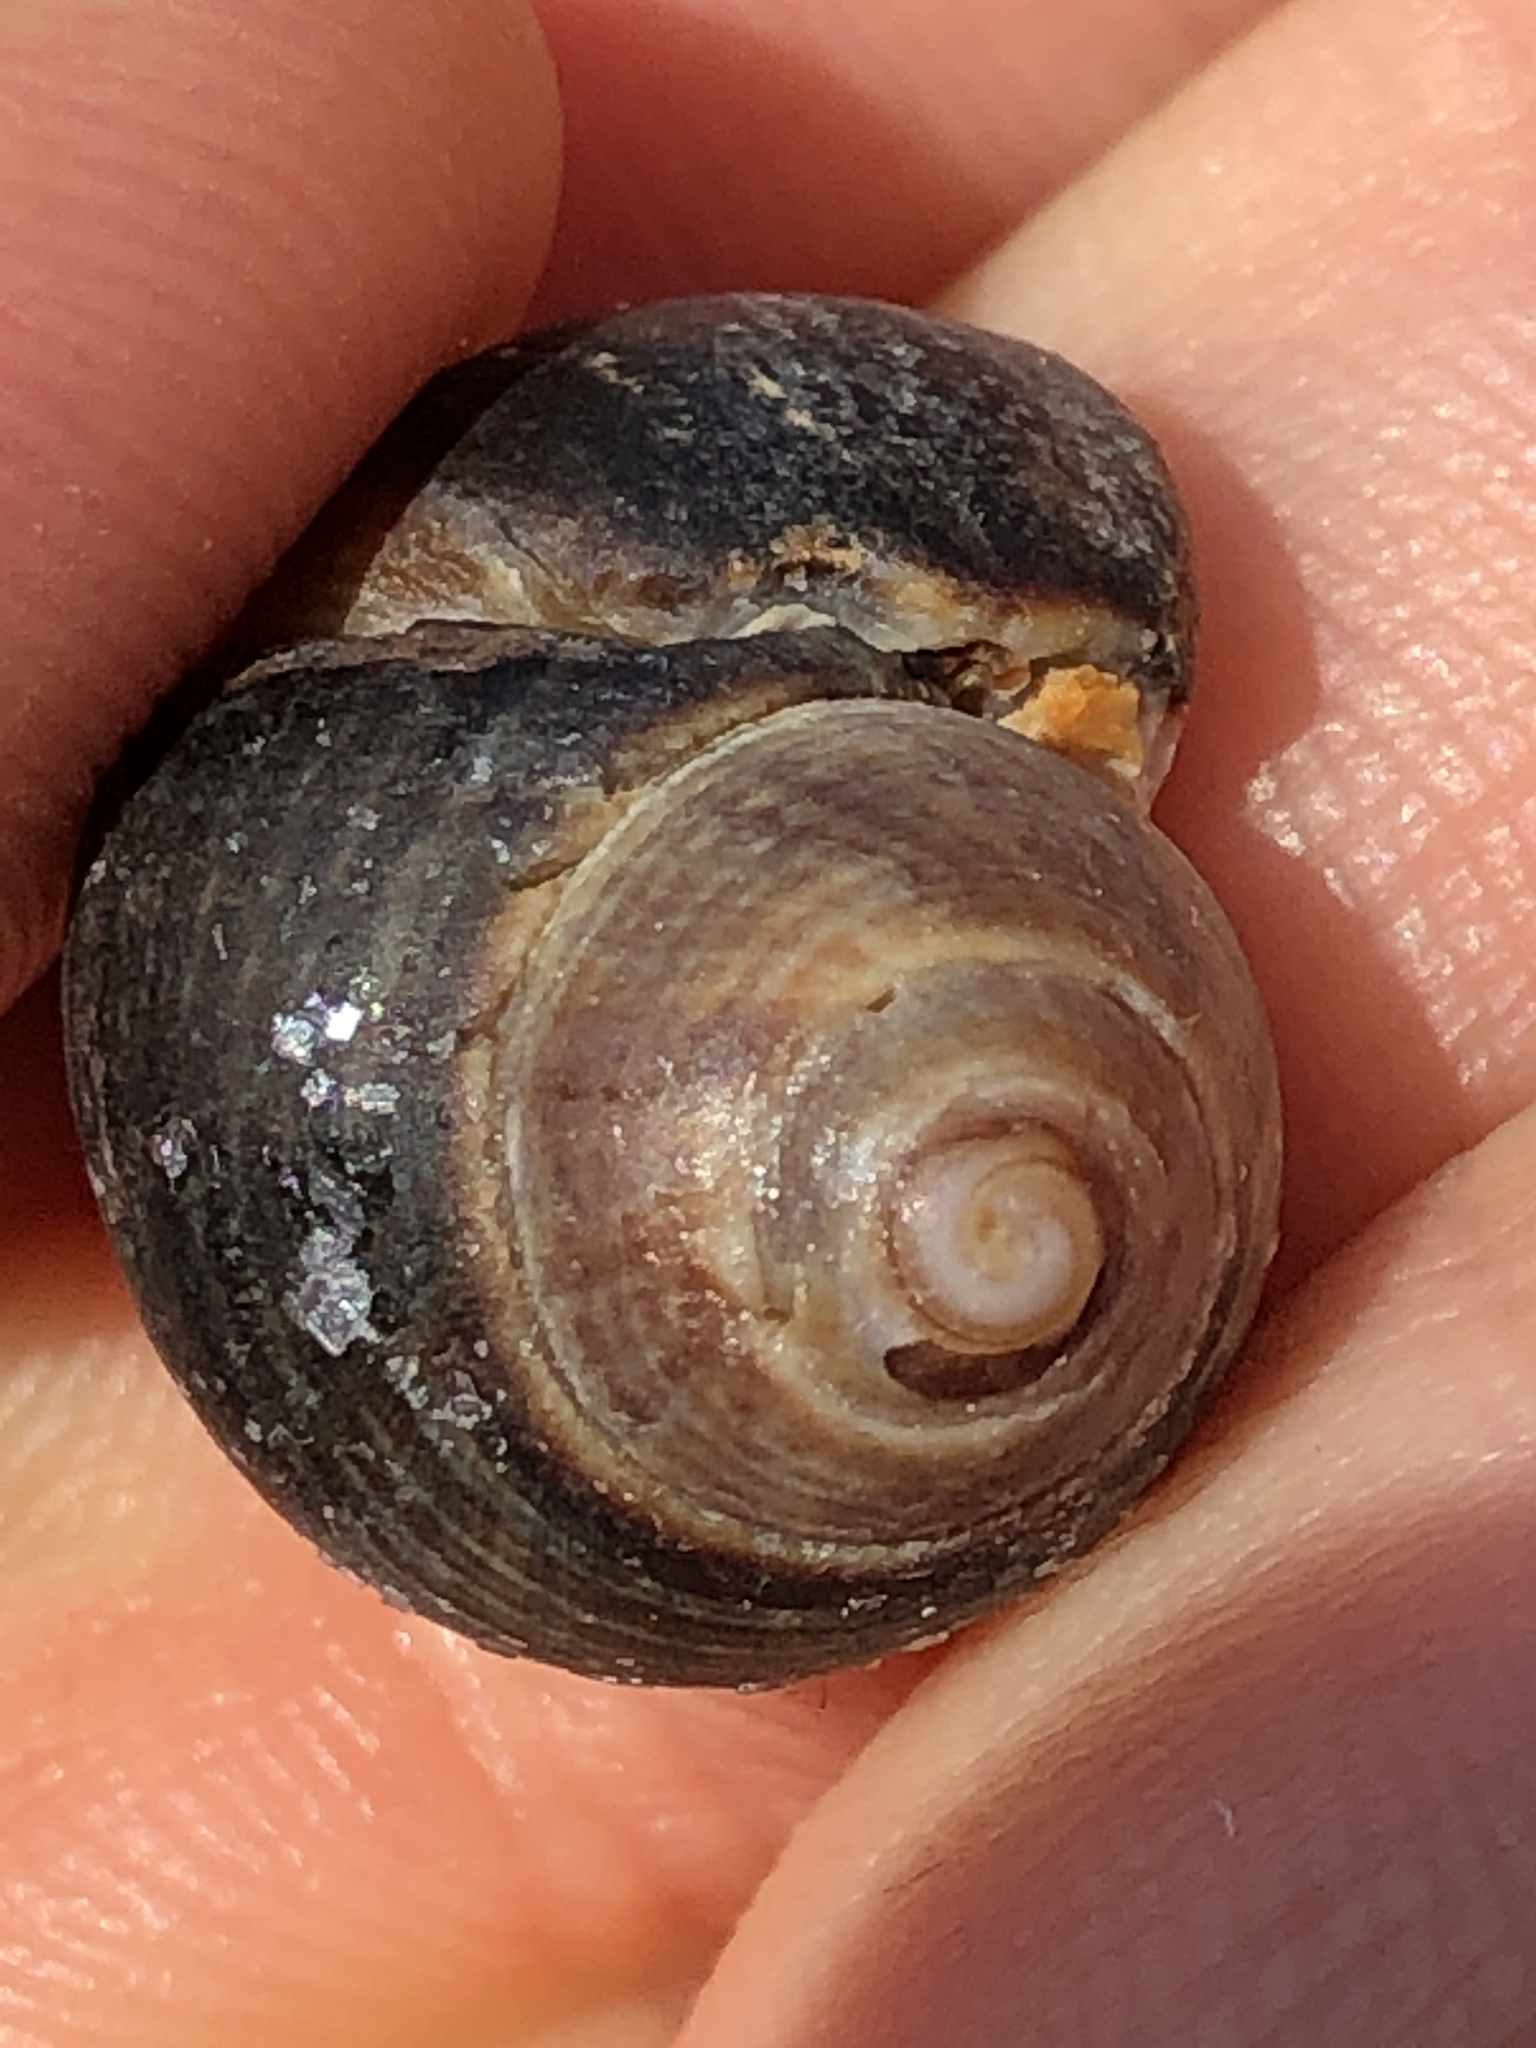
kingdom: Animalia
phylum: Mollusca
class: Gastropoda
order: Littorinimorpha
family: Littorinidae
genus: Littorina
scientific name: Littorina littorea
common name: Common periwinkle
